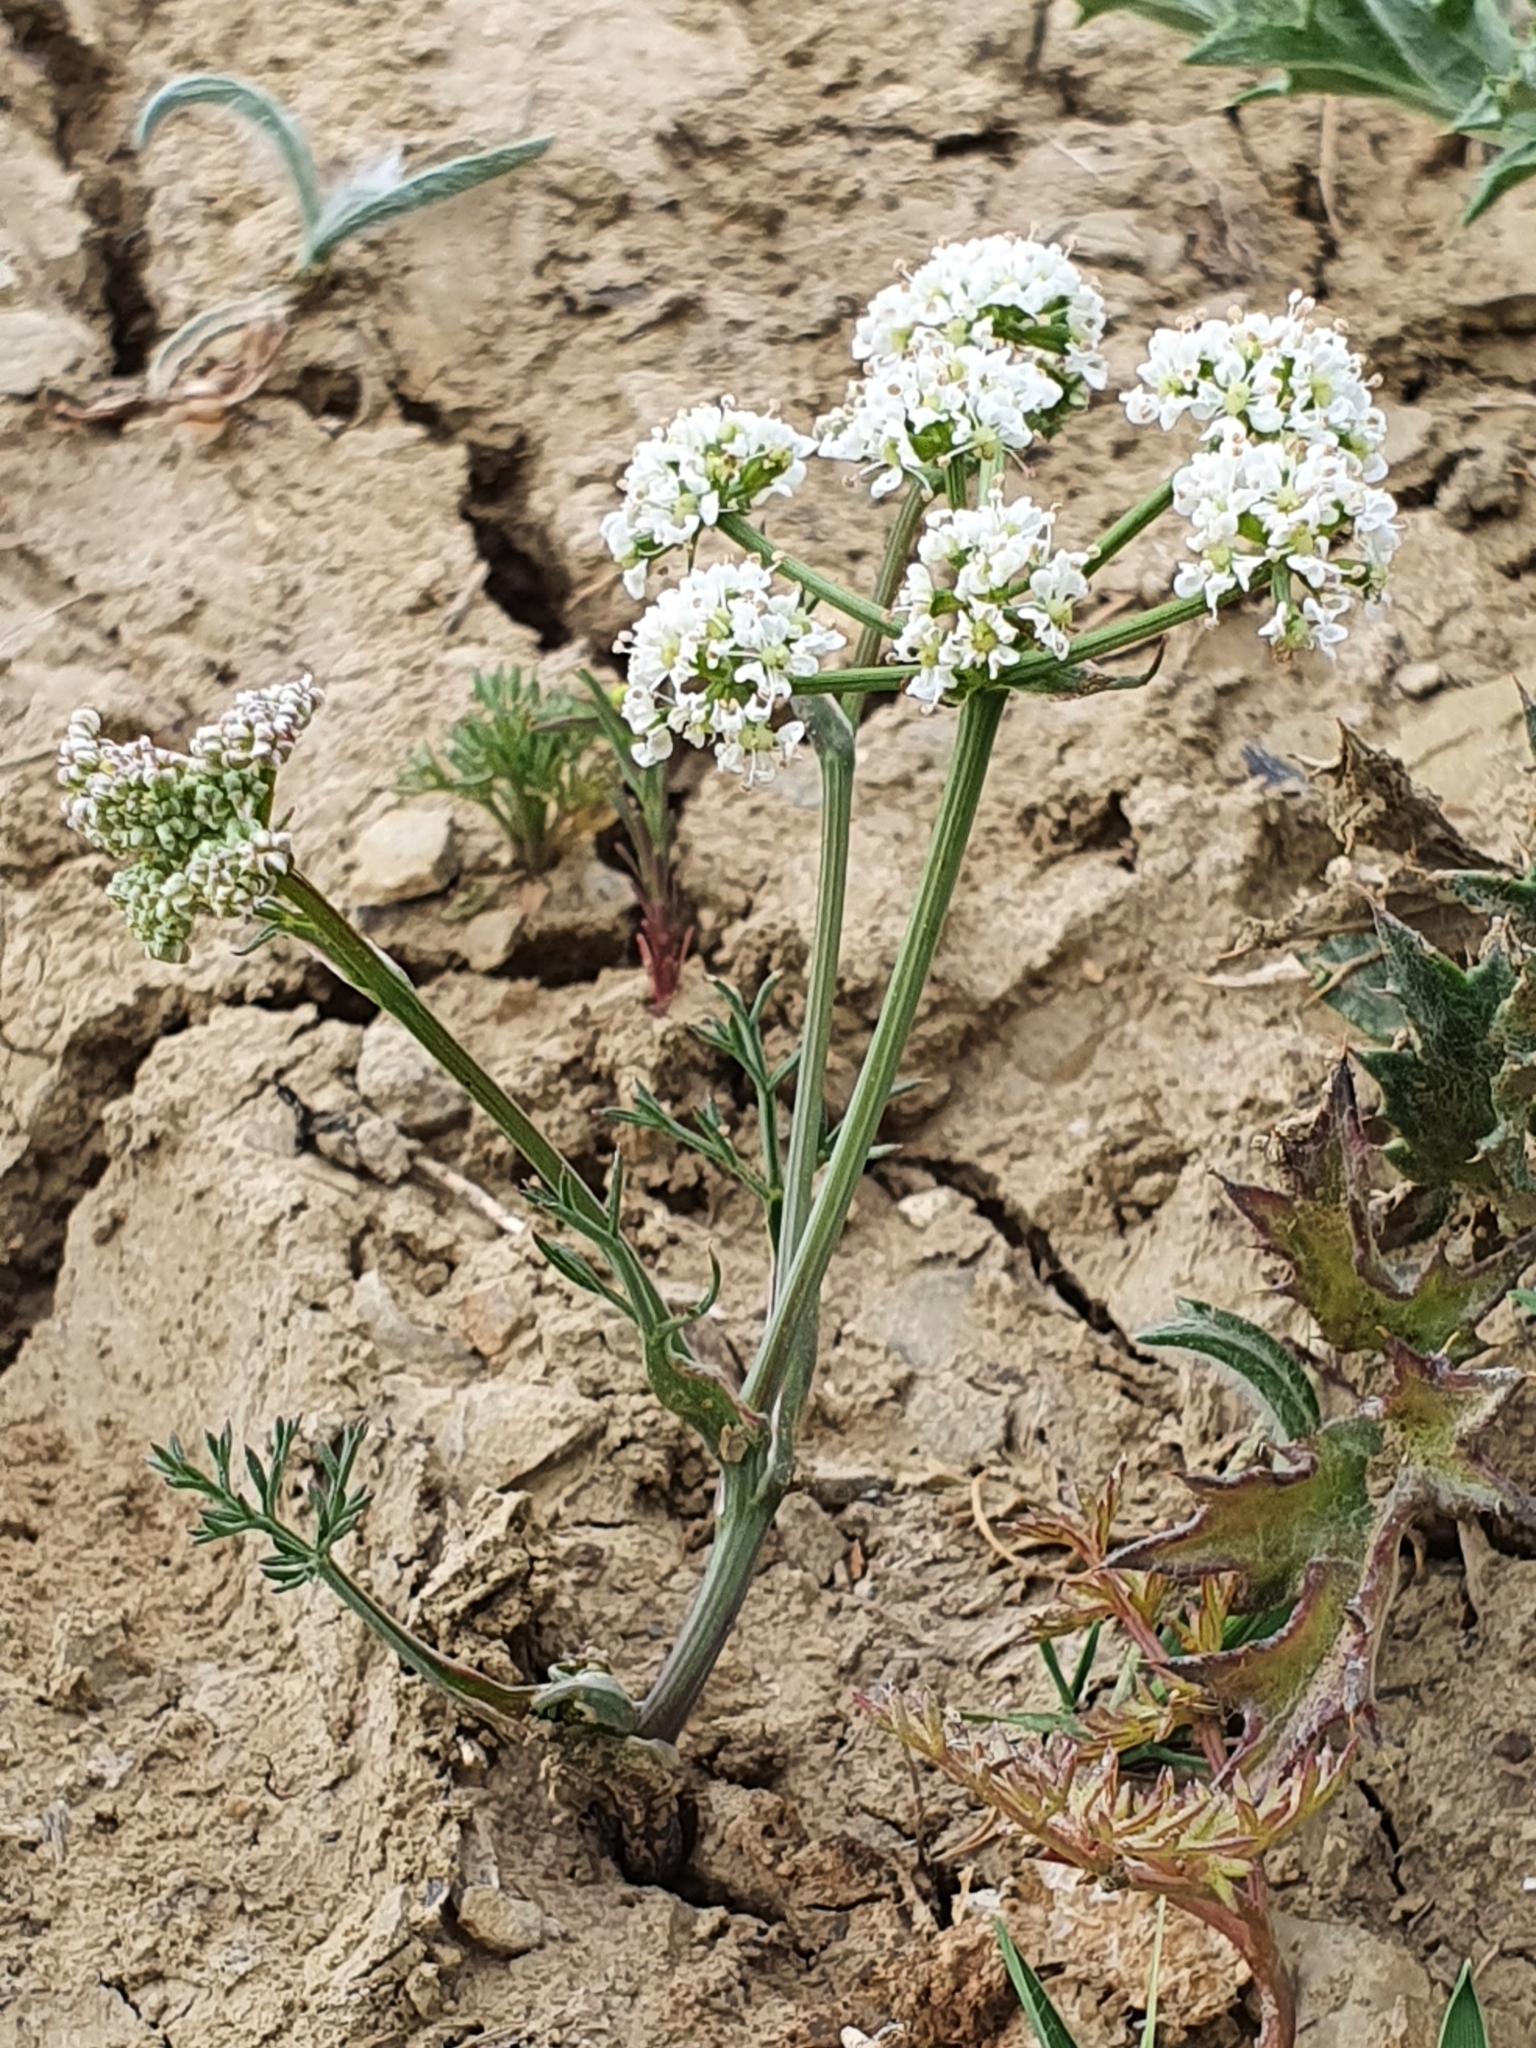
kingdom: Plantae
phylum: Tracheophyta
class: Magnoliopsida
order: Apiales
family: Apiaceae
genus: Bunium
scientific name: Bunium pachypodum
